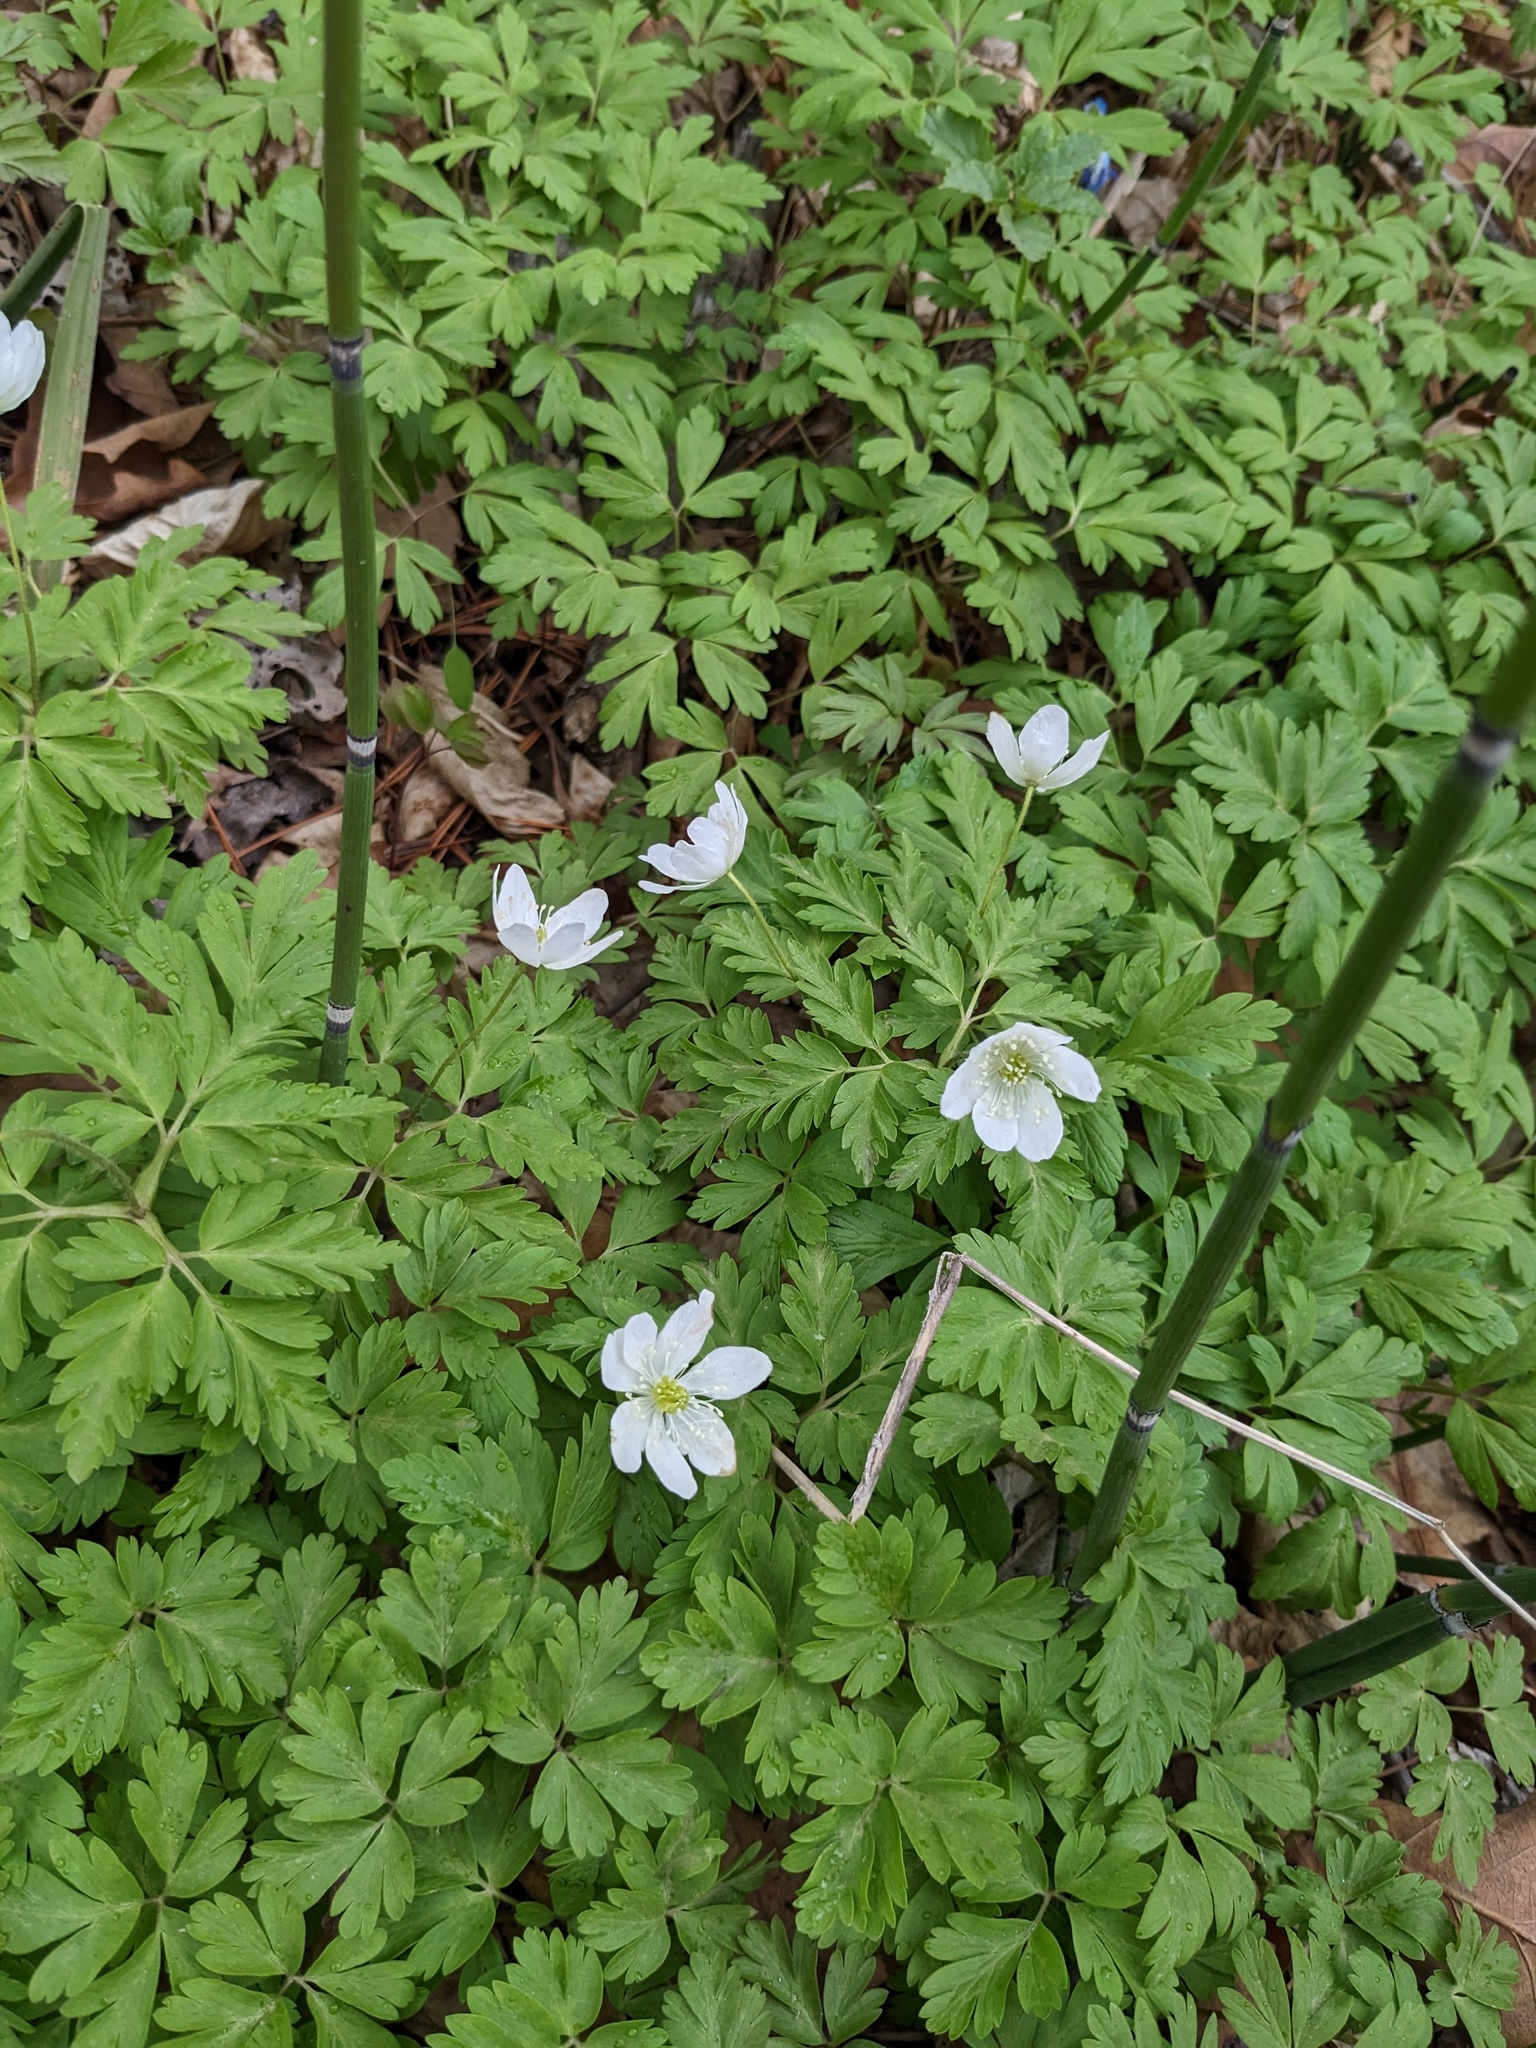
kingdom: Plantae
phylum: Tracheophyta
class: Magnoliopsida
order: Ranunculales
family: Ranunculaceae
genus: Anemone
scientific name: Anemone amurensis
